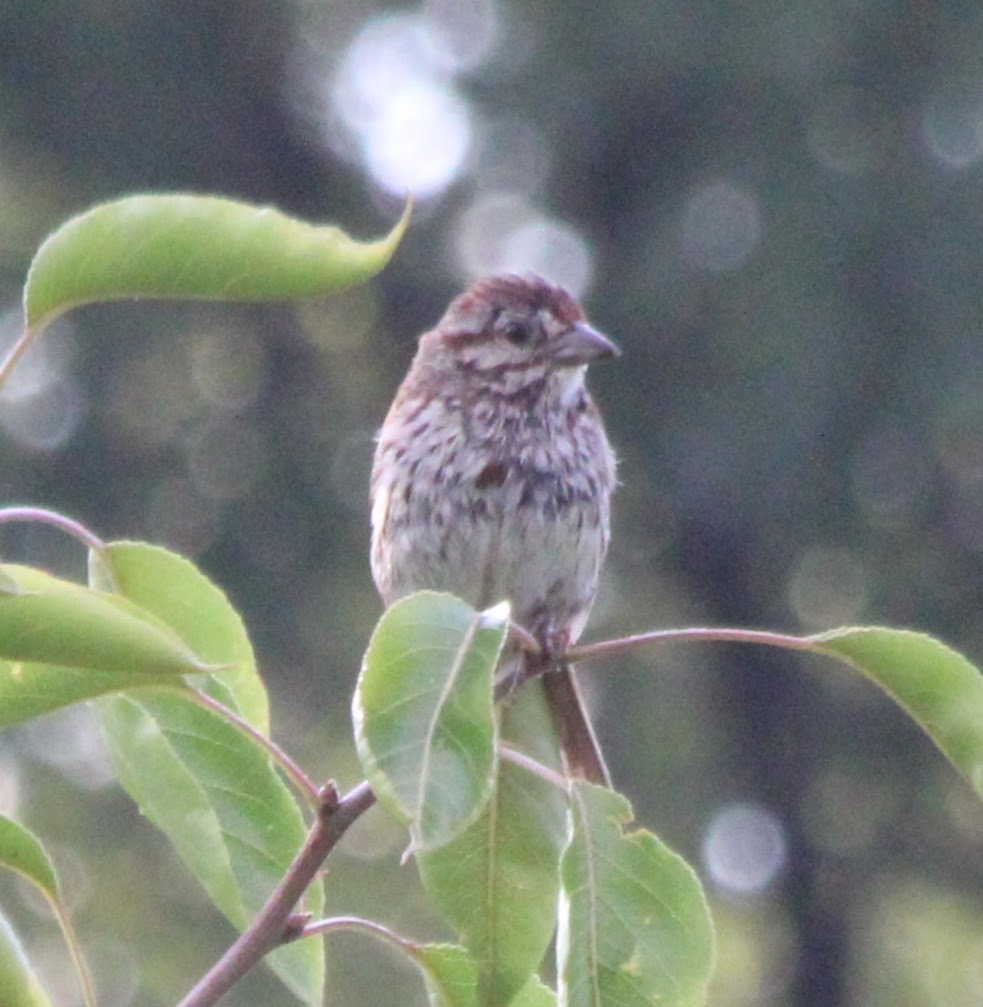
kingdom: Animalia
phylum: Chordata
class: Aves
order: Passeriformes
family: Passerellidae
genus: Melospiza
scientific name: Melospiza melodia
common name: Song sparrow
